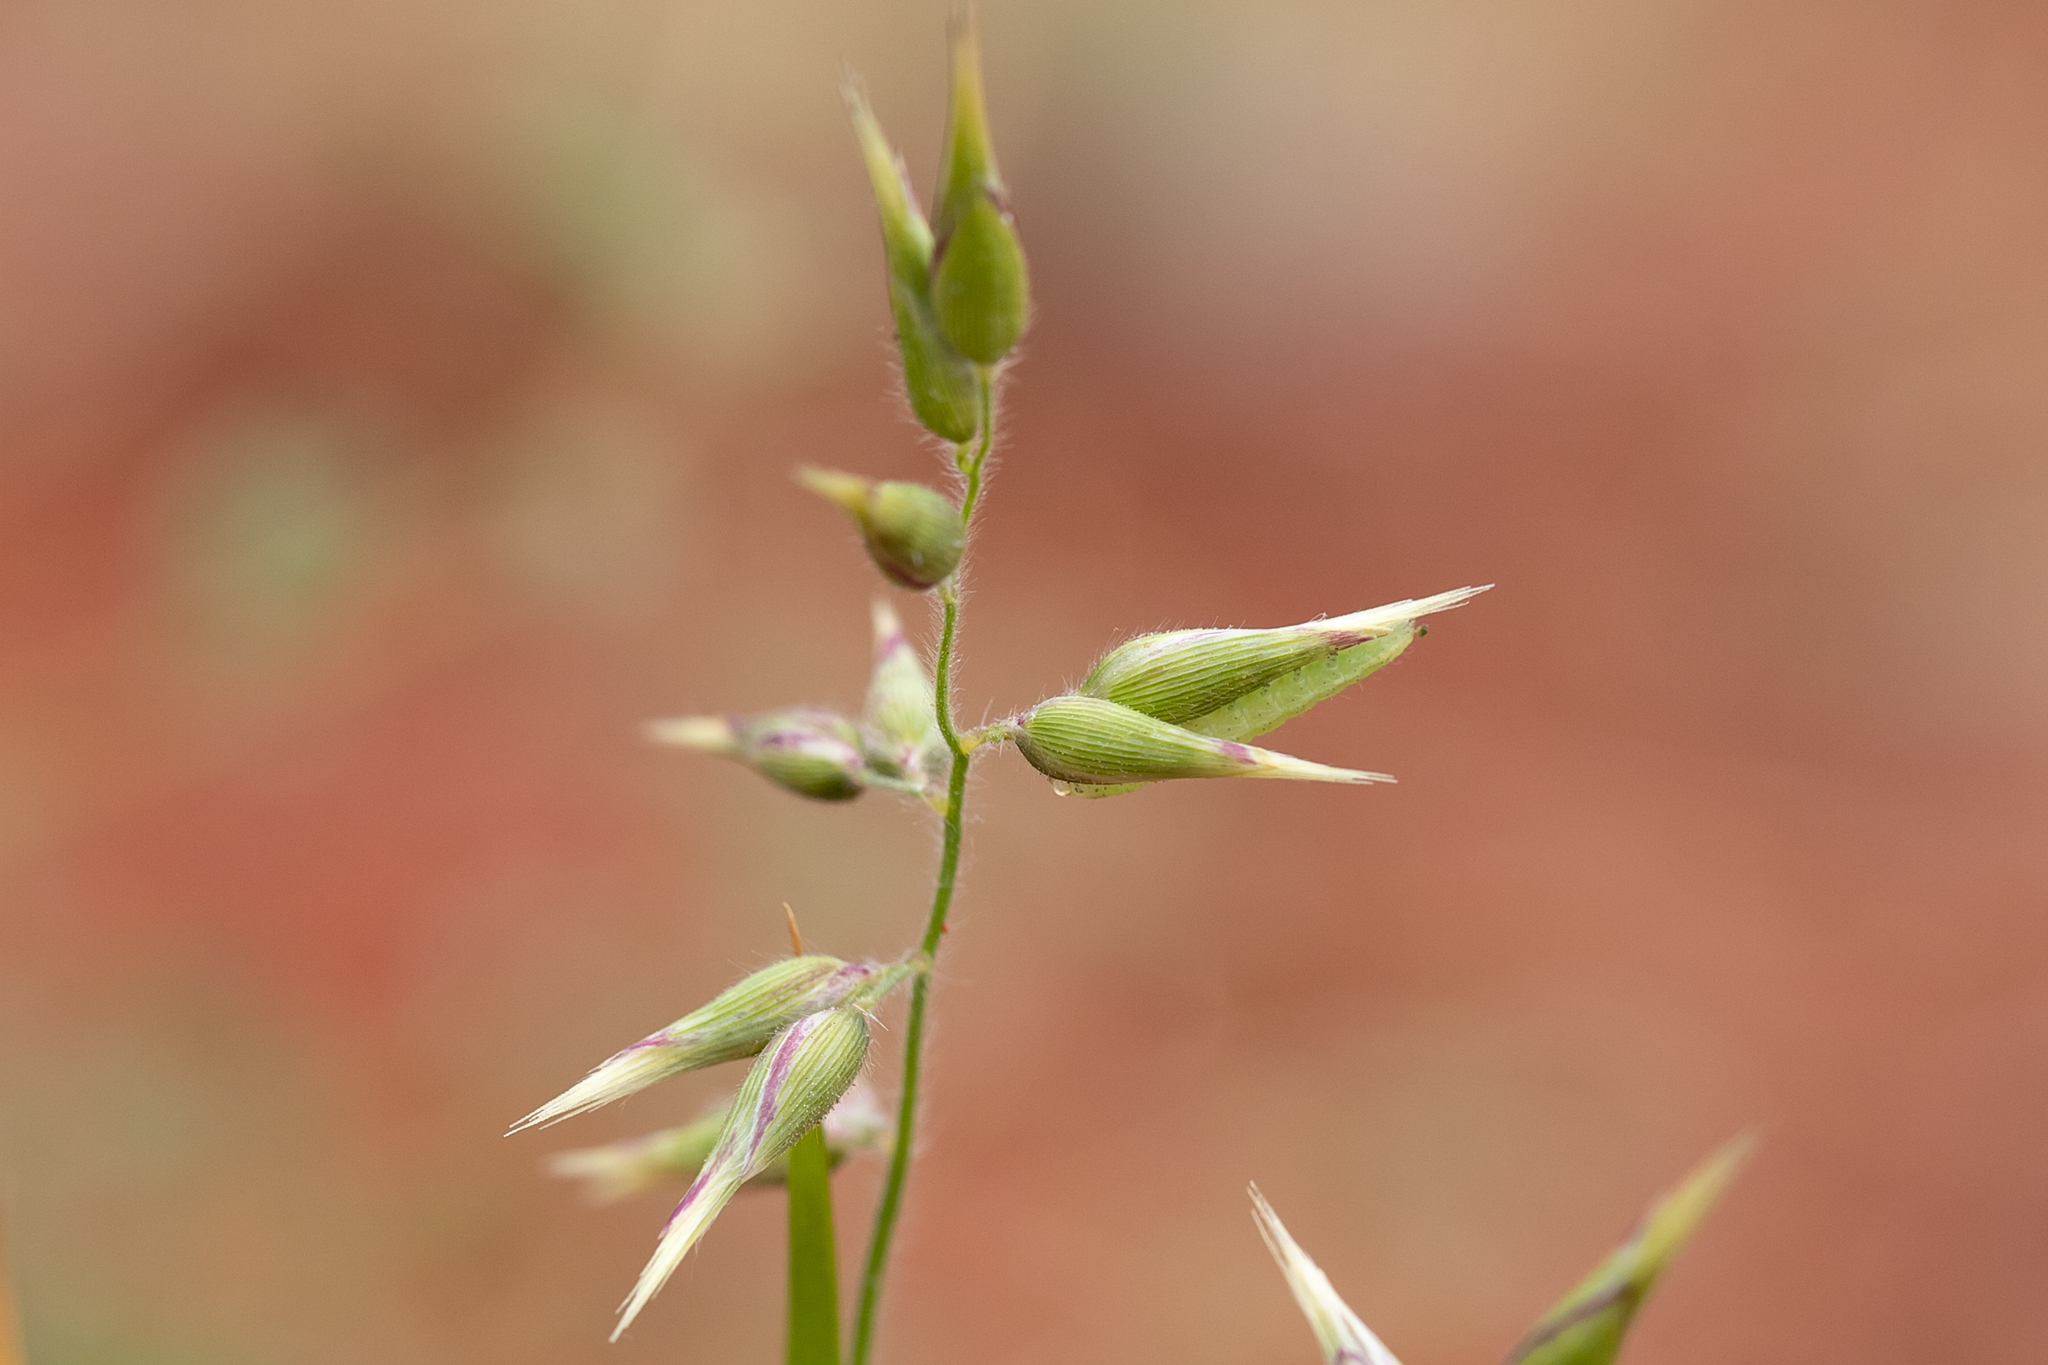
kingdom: Plantae
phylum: Tracheophyta
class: Liliopsida
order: Poales
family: Poaceae
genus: Enneapogon
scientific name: Enneapogon avenaceus
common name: Hairy oat grass
